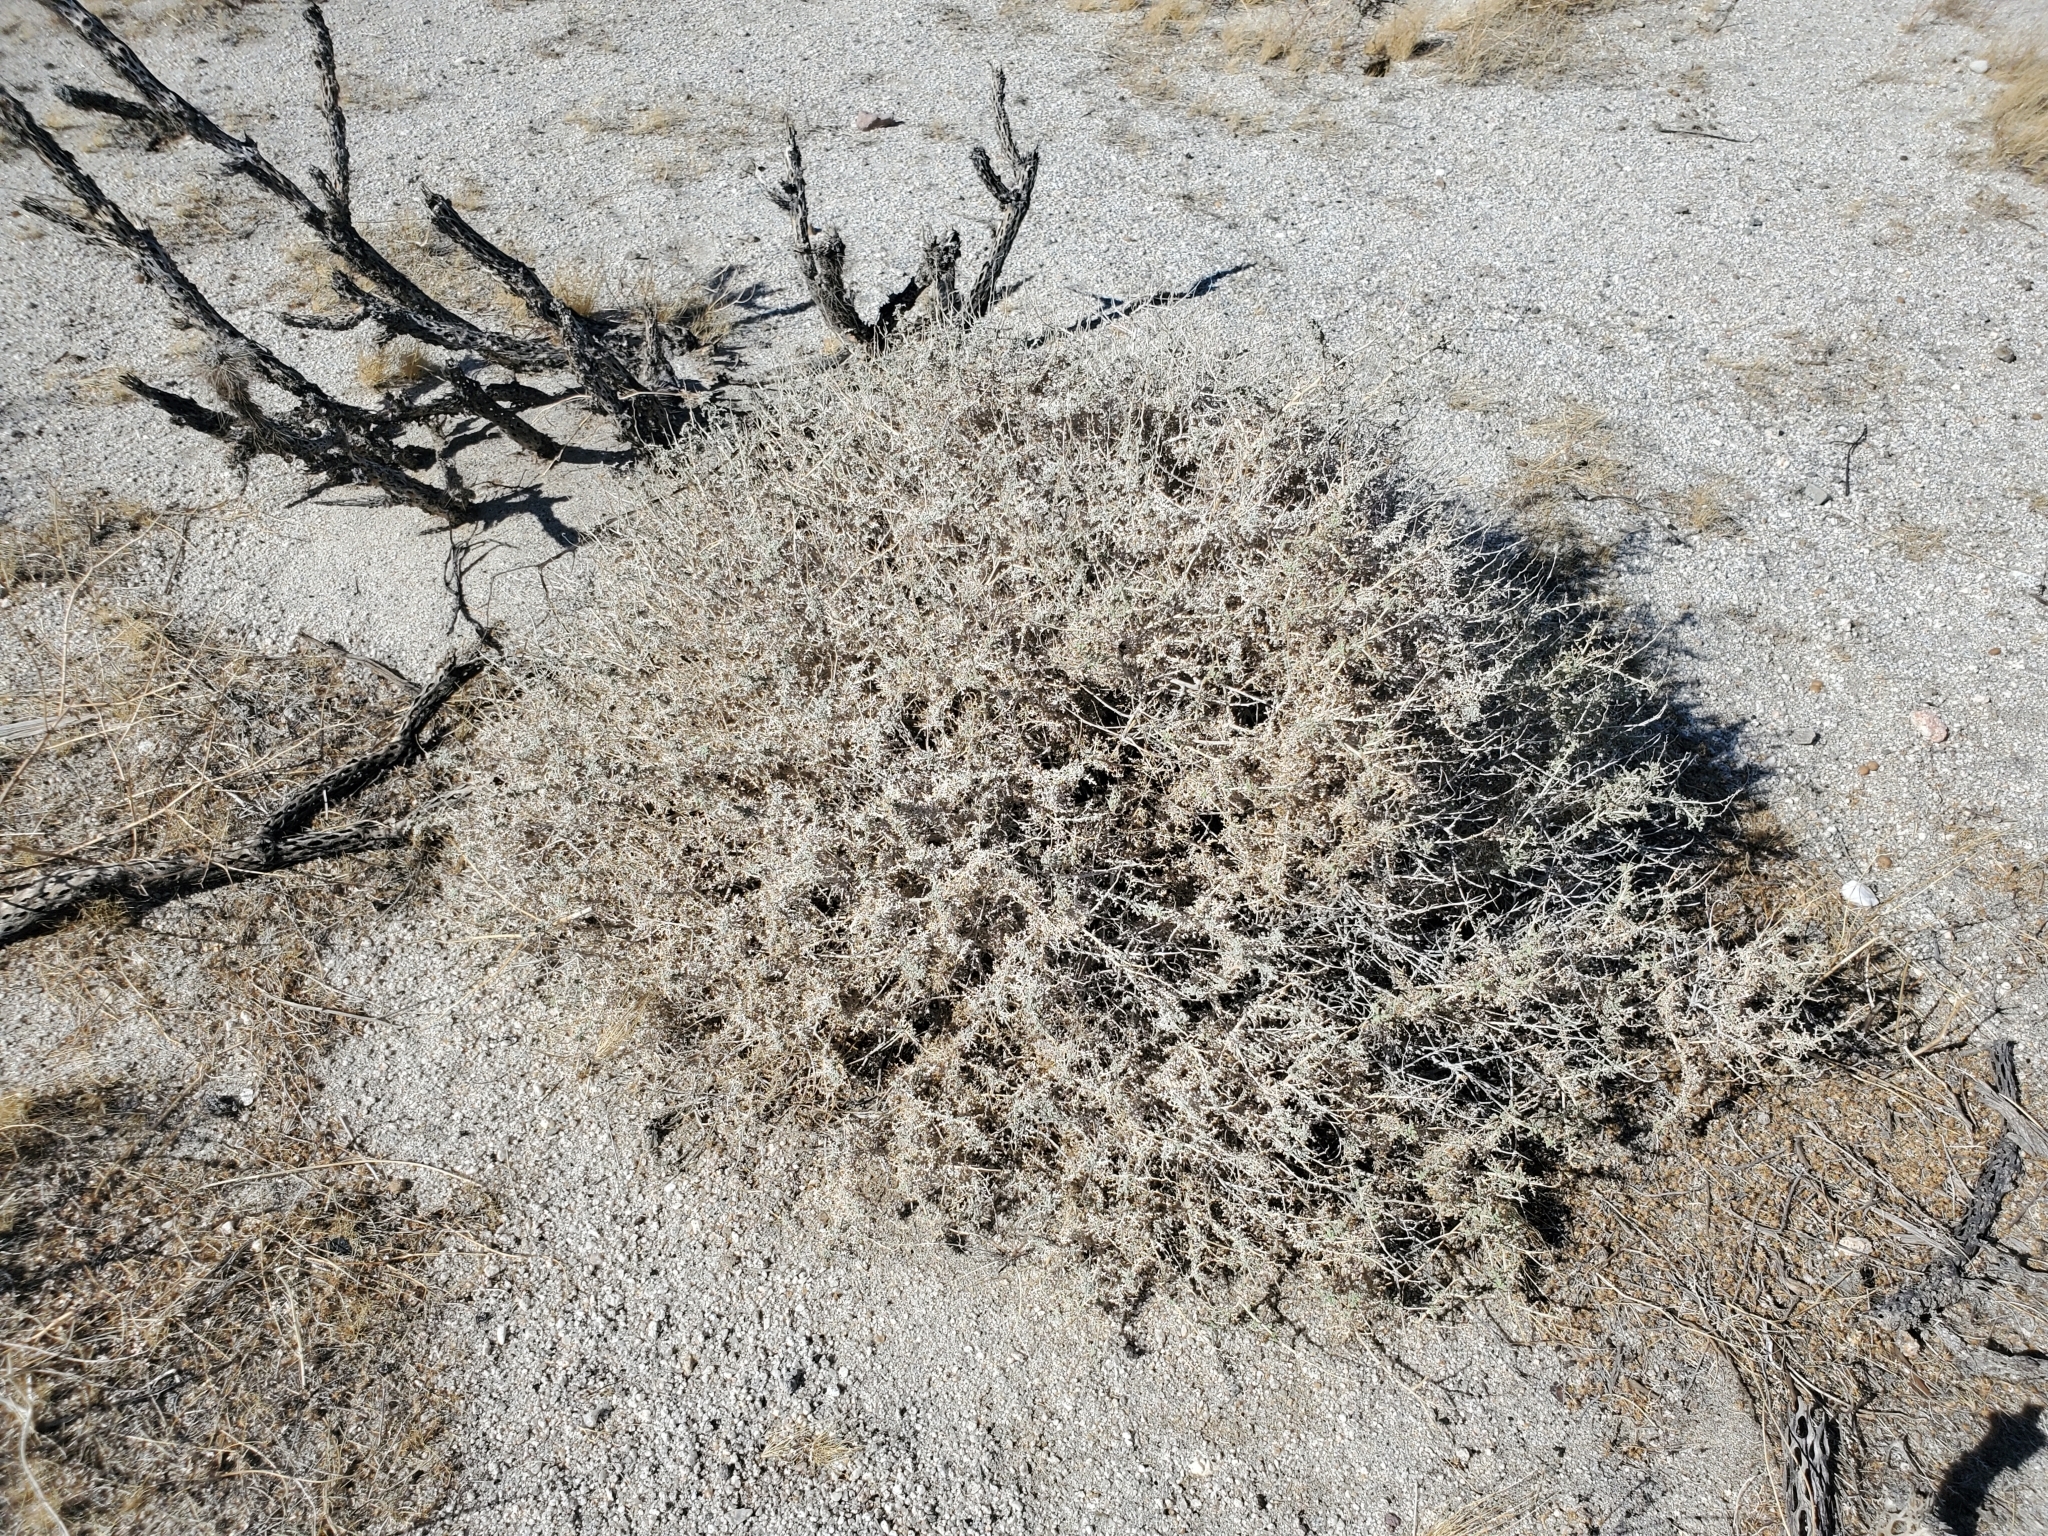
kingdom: Plantae
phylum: Tracheophyta
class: Magnoliopsida
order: Asterales
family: Asteraceae
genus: Ambrosia
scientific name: Ambrosia dumosa
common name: Bur-sage
